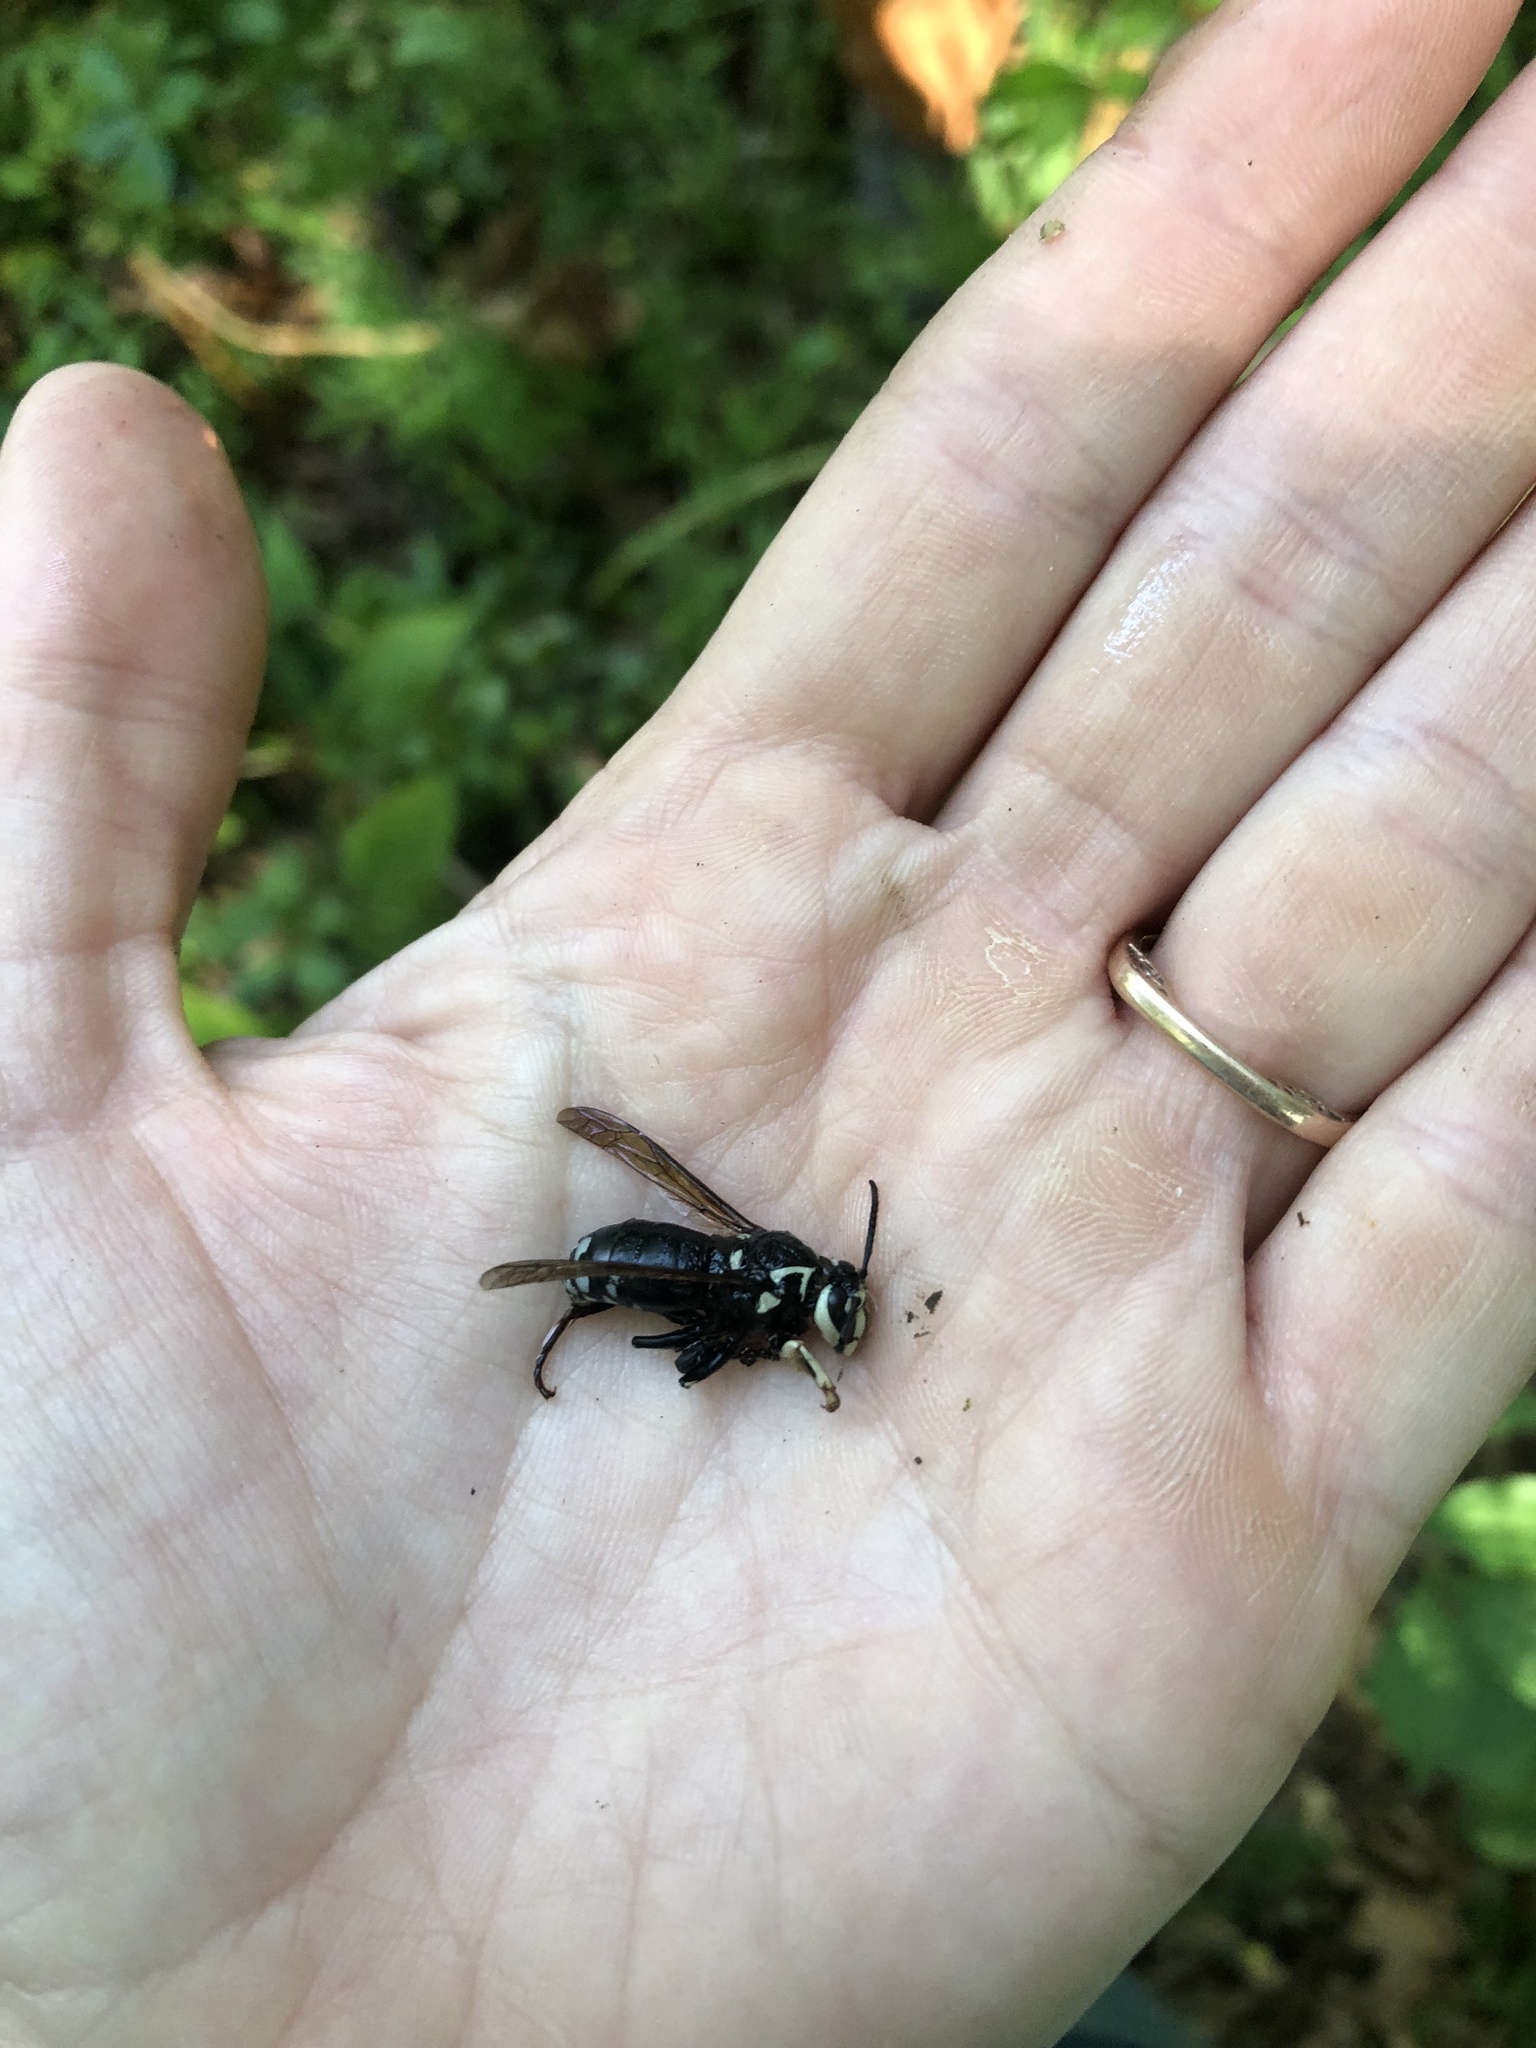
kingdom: Animalia
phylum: Arthropoda
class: Insecta
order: Hymenoptera
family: Vespidae
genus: Dolichovespula
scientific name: Dolichovespula maculata
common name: Bald-faced hornet
